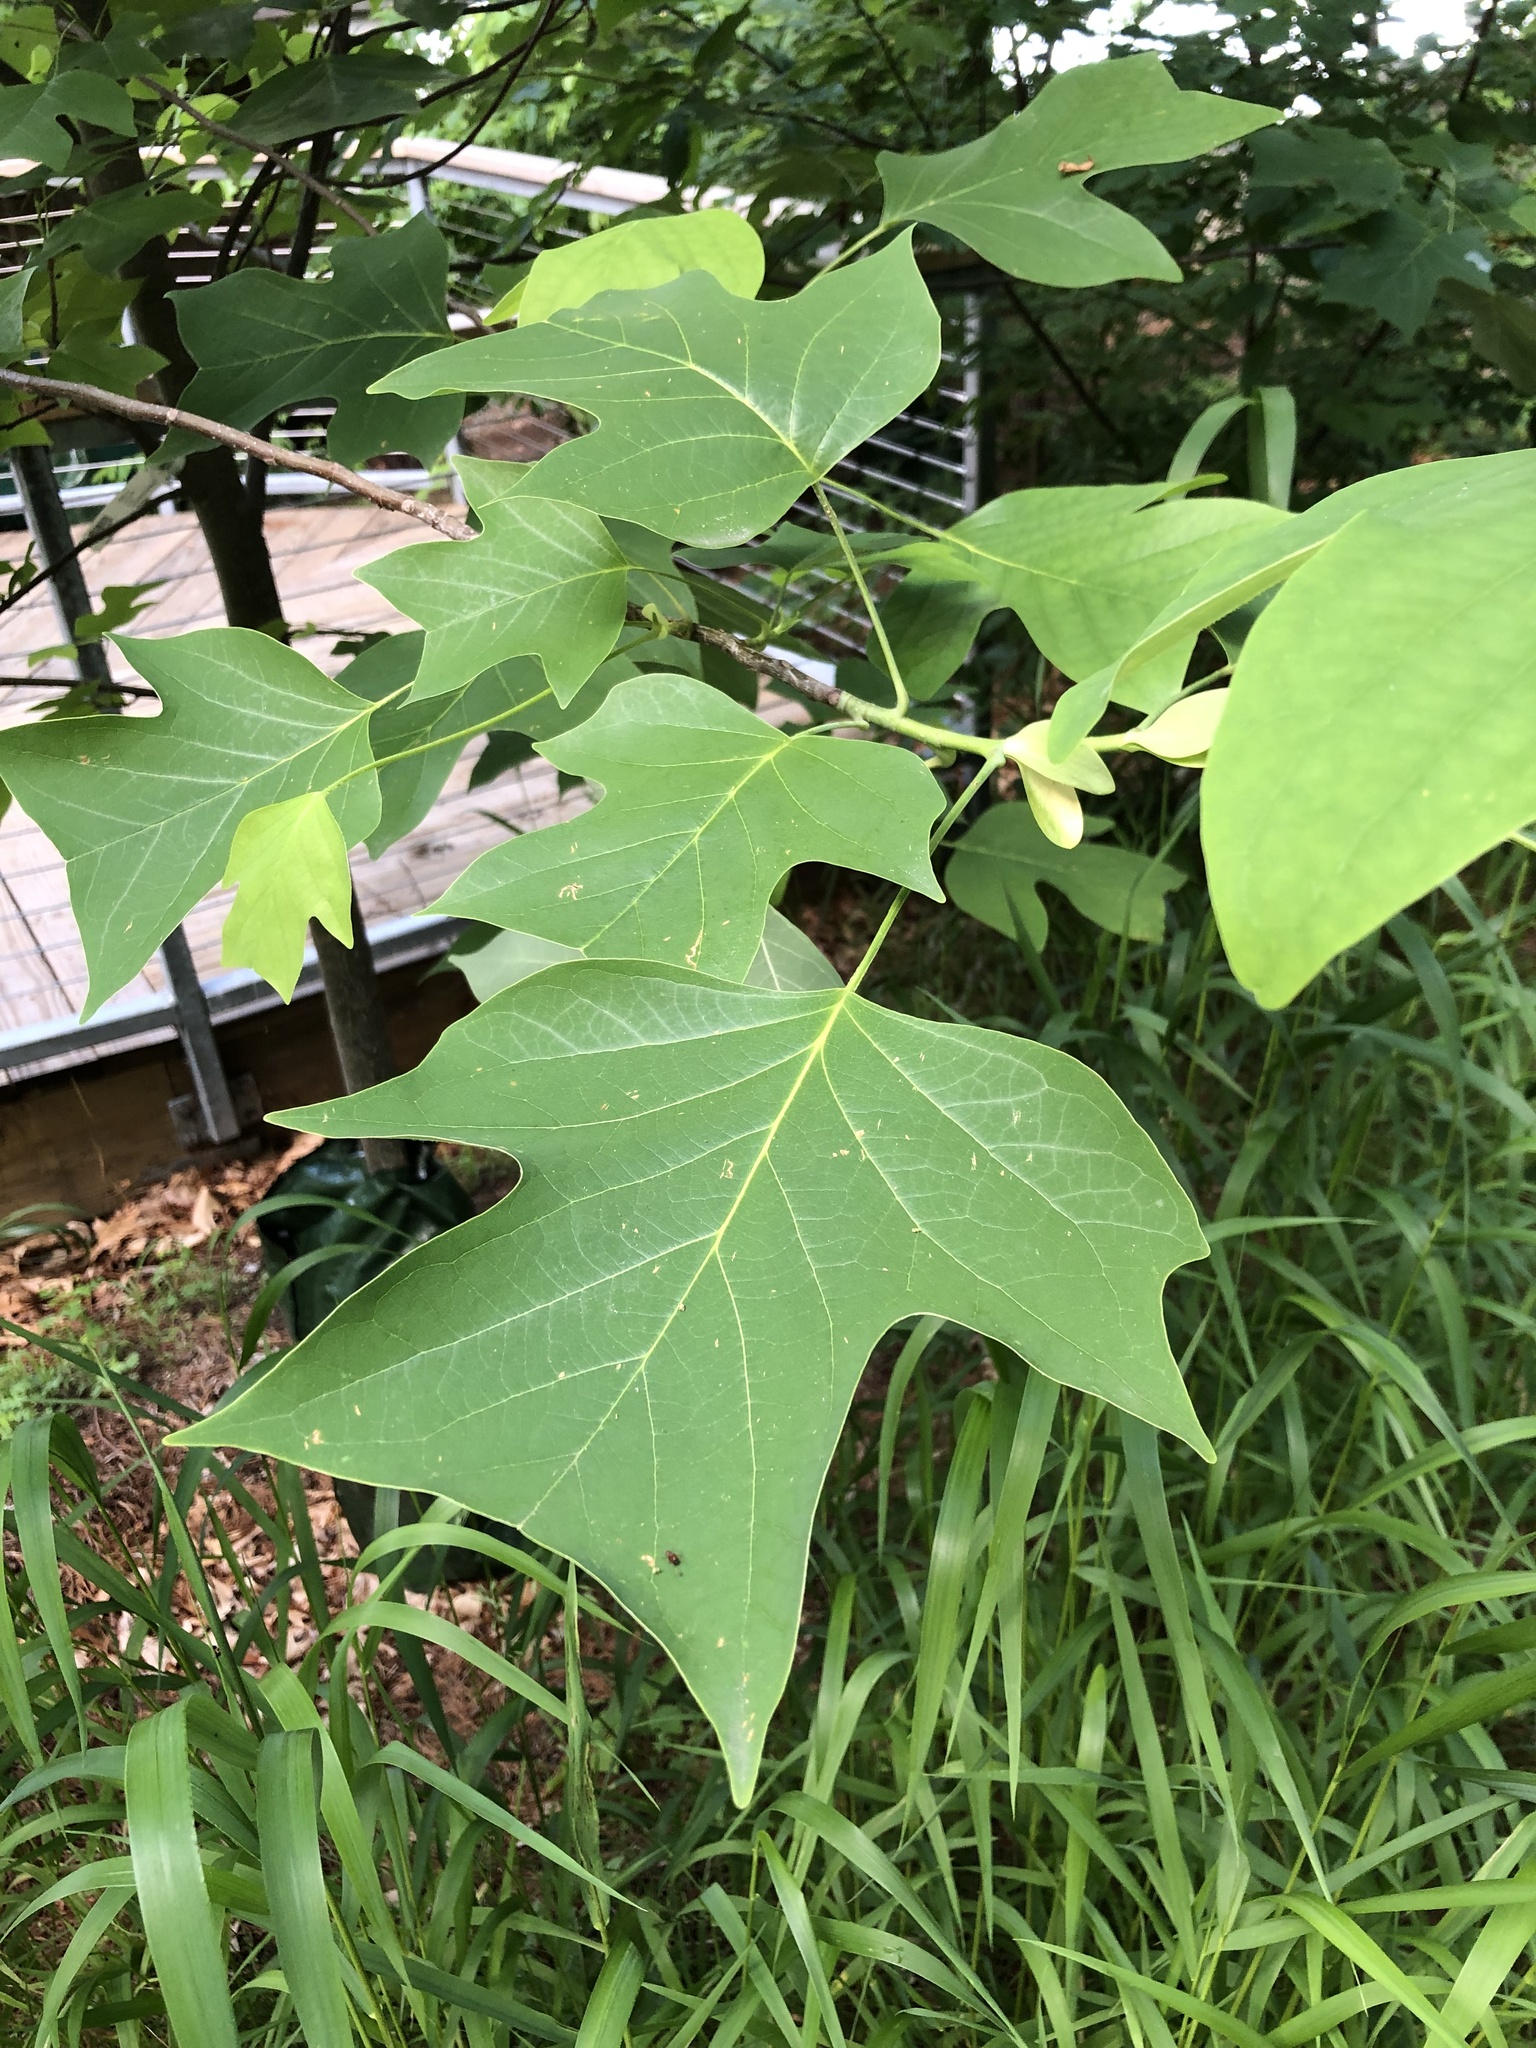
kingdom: Plantae
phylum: Tracheophyta
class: Magnoliopsida
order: Magnoliales
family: Magnoliaceae
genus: Liriodendron
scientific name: Liriodendron tulipifera
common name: Tulip tree
